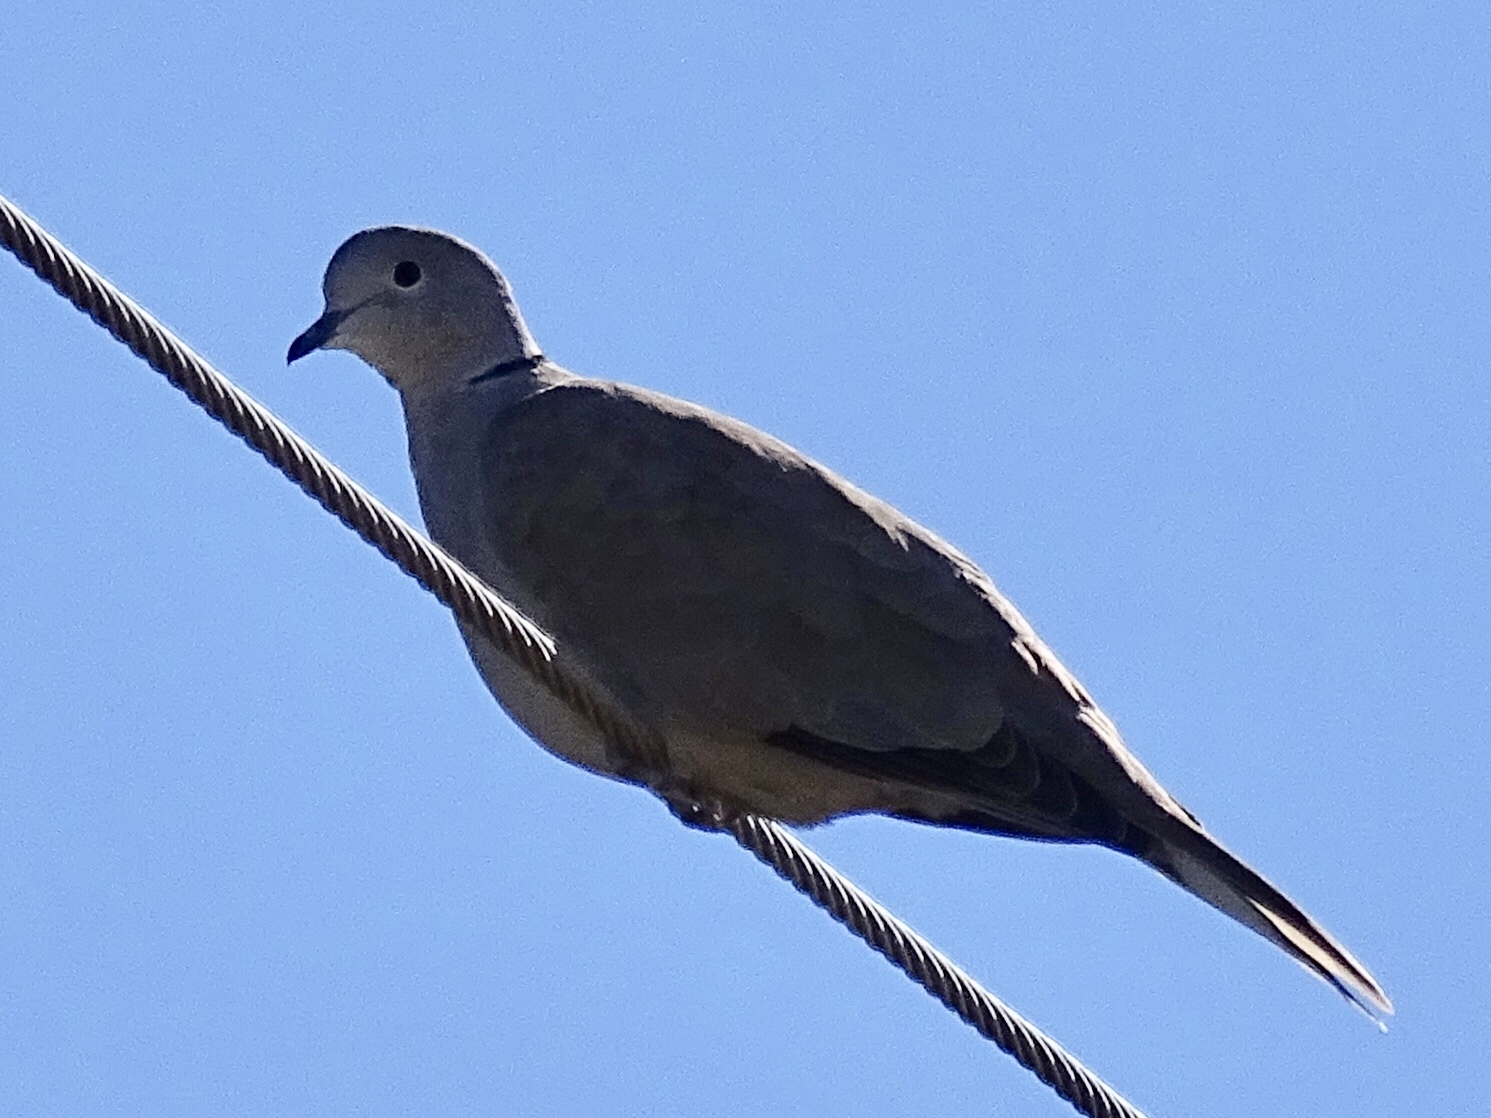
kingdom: Animalia
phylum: Chordata
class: Aves
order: Columbiformes
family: Columbidae
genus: Streptopelia
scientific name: Streptopelia decaocto
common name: Eurasian collared dove
